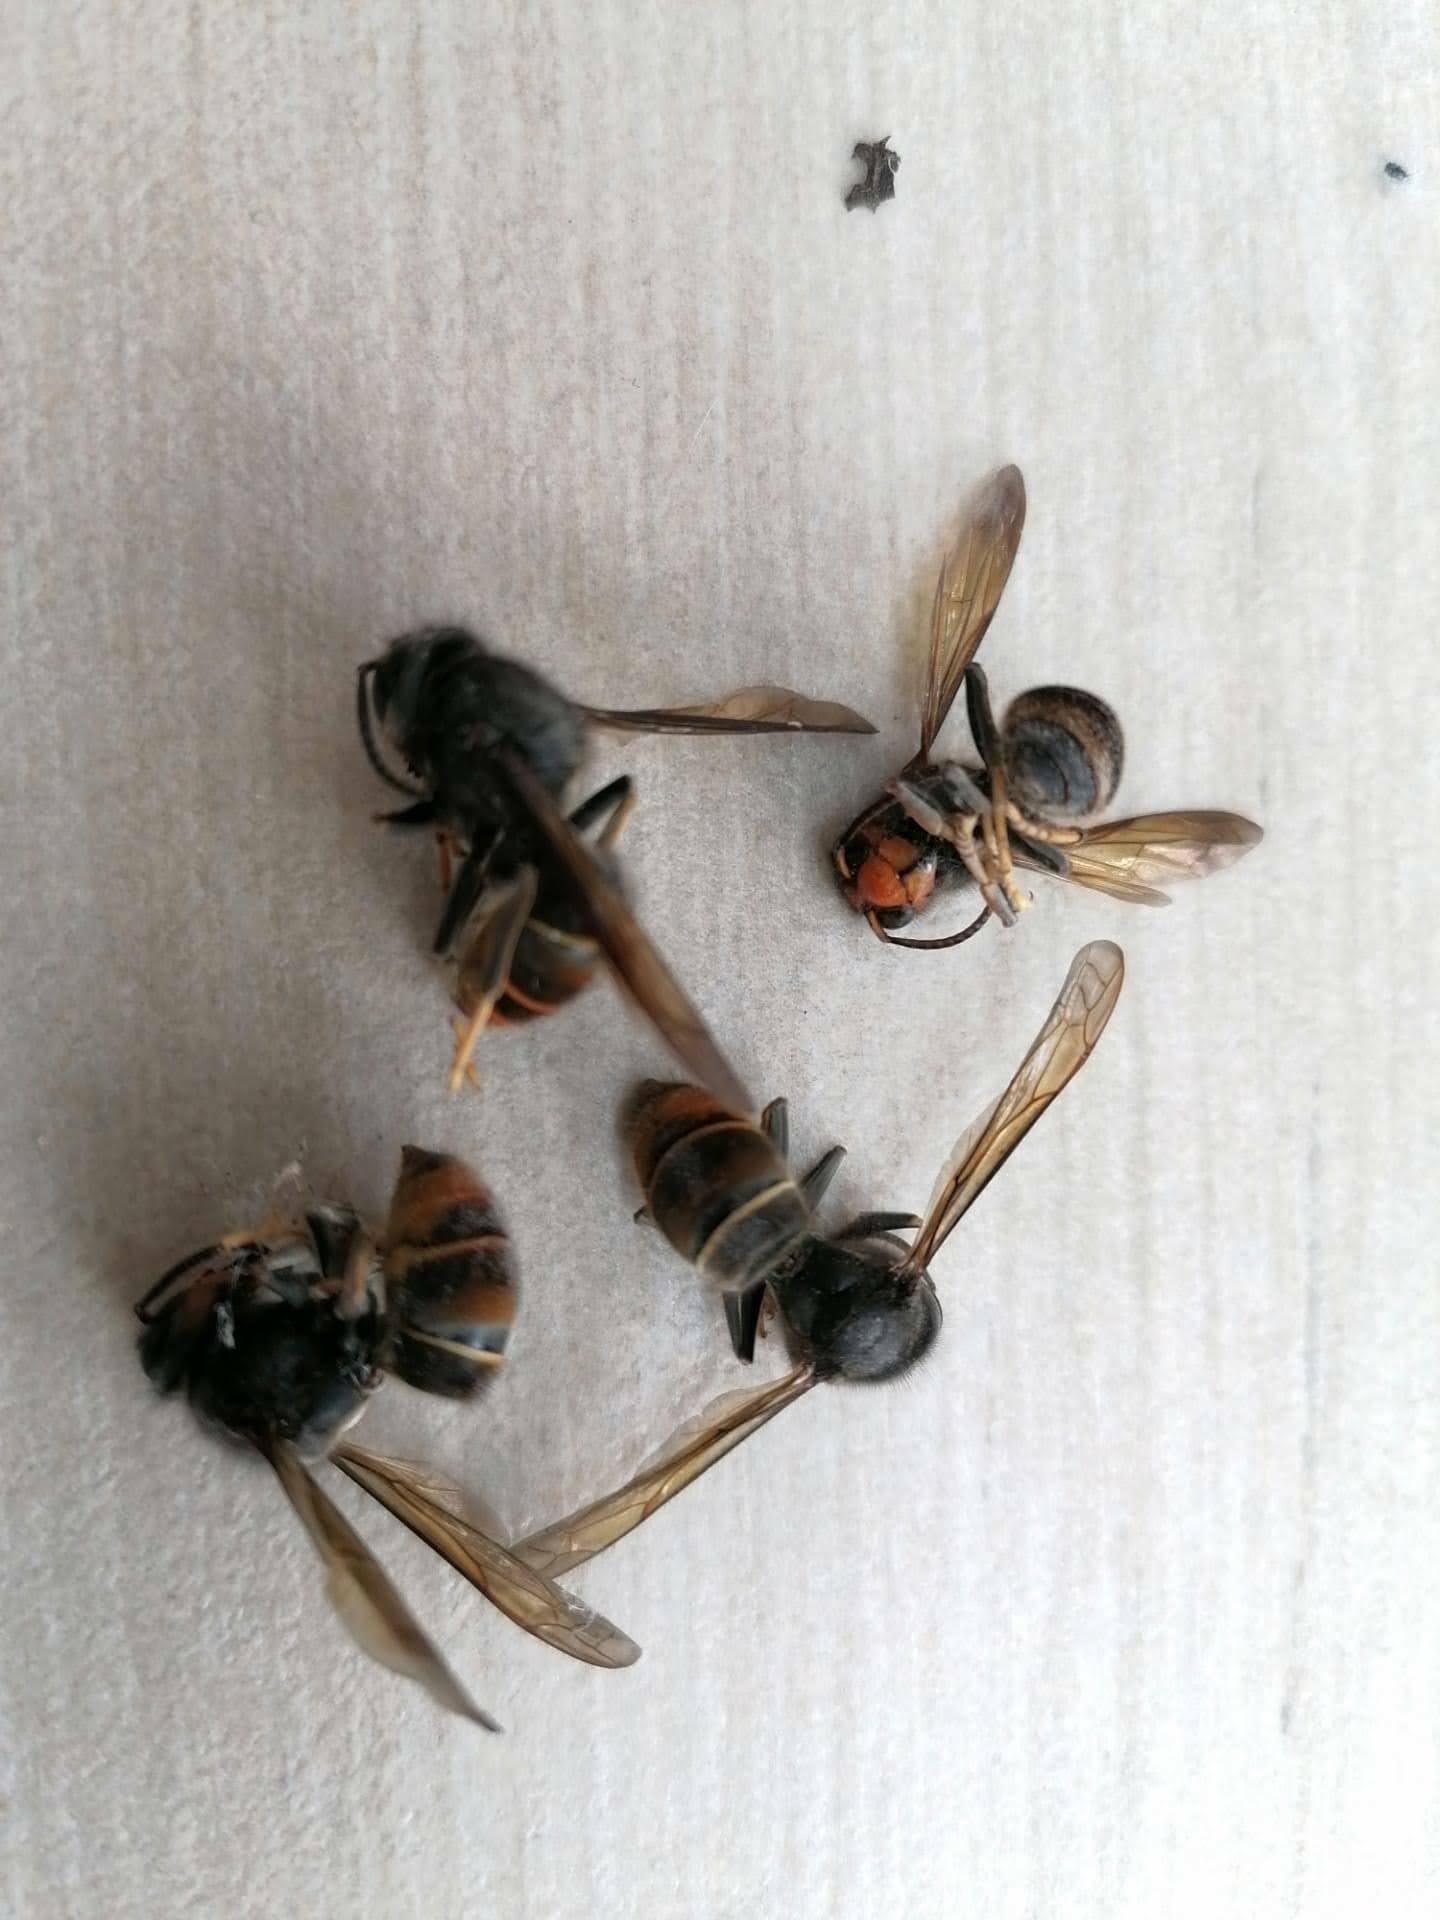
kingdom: Animalia
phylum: Arthropoda
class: Insecta
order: Hymenoptera
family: Vespidae
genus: Vespa
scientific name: Vespa velutina
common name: Asian hornet
